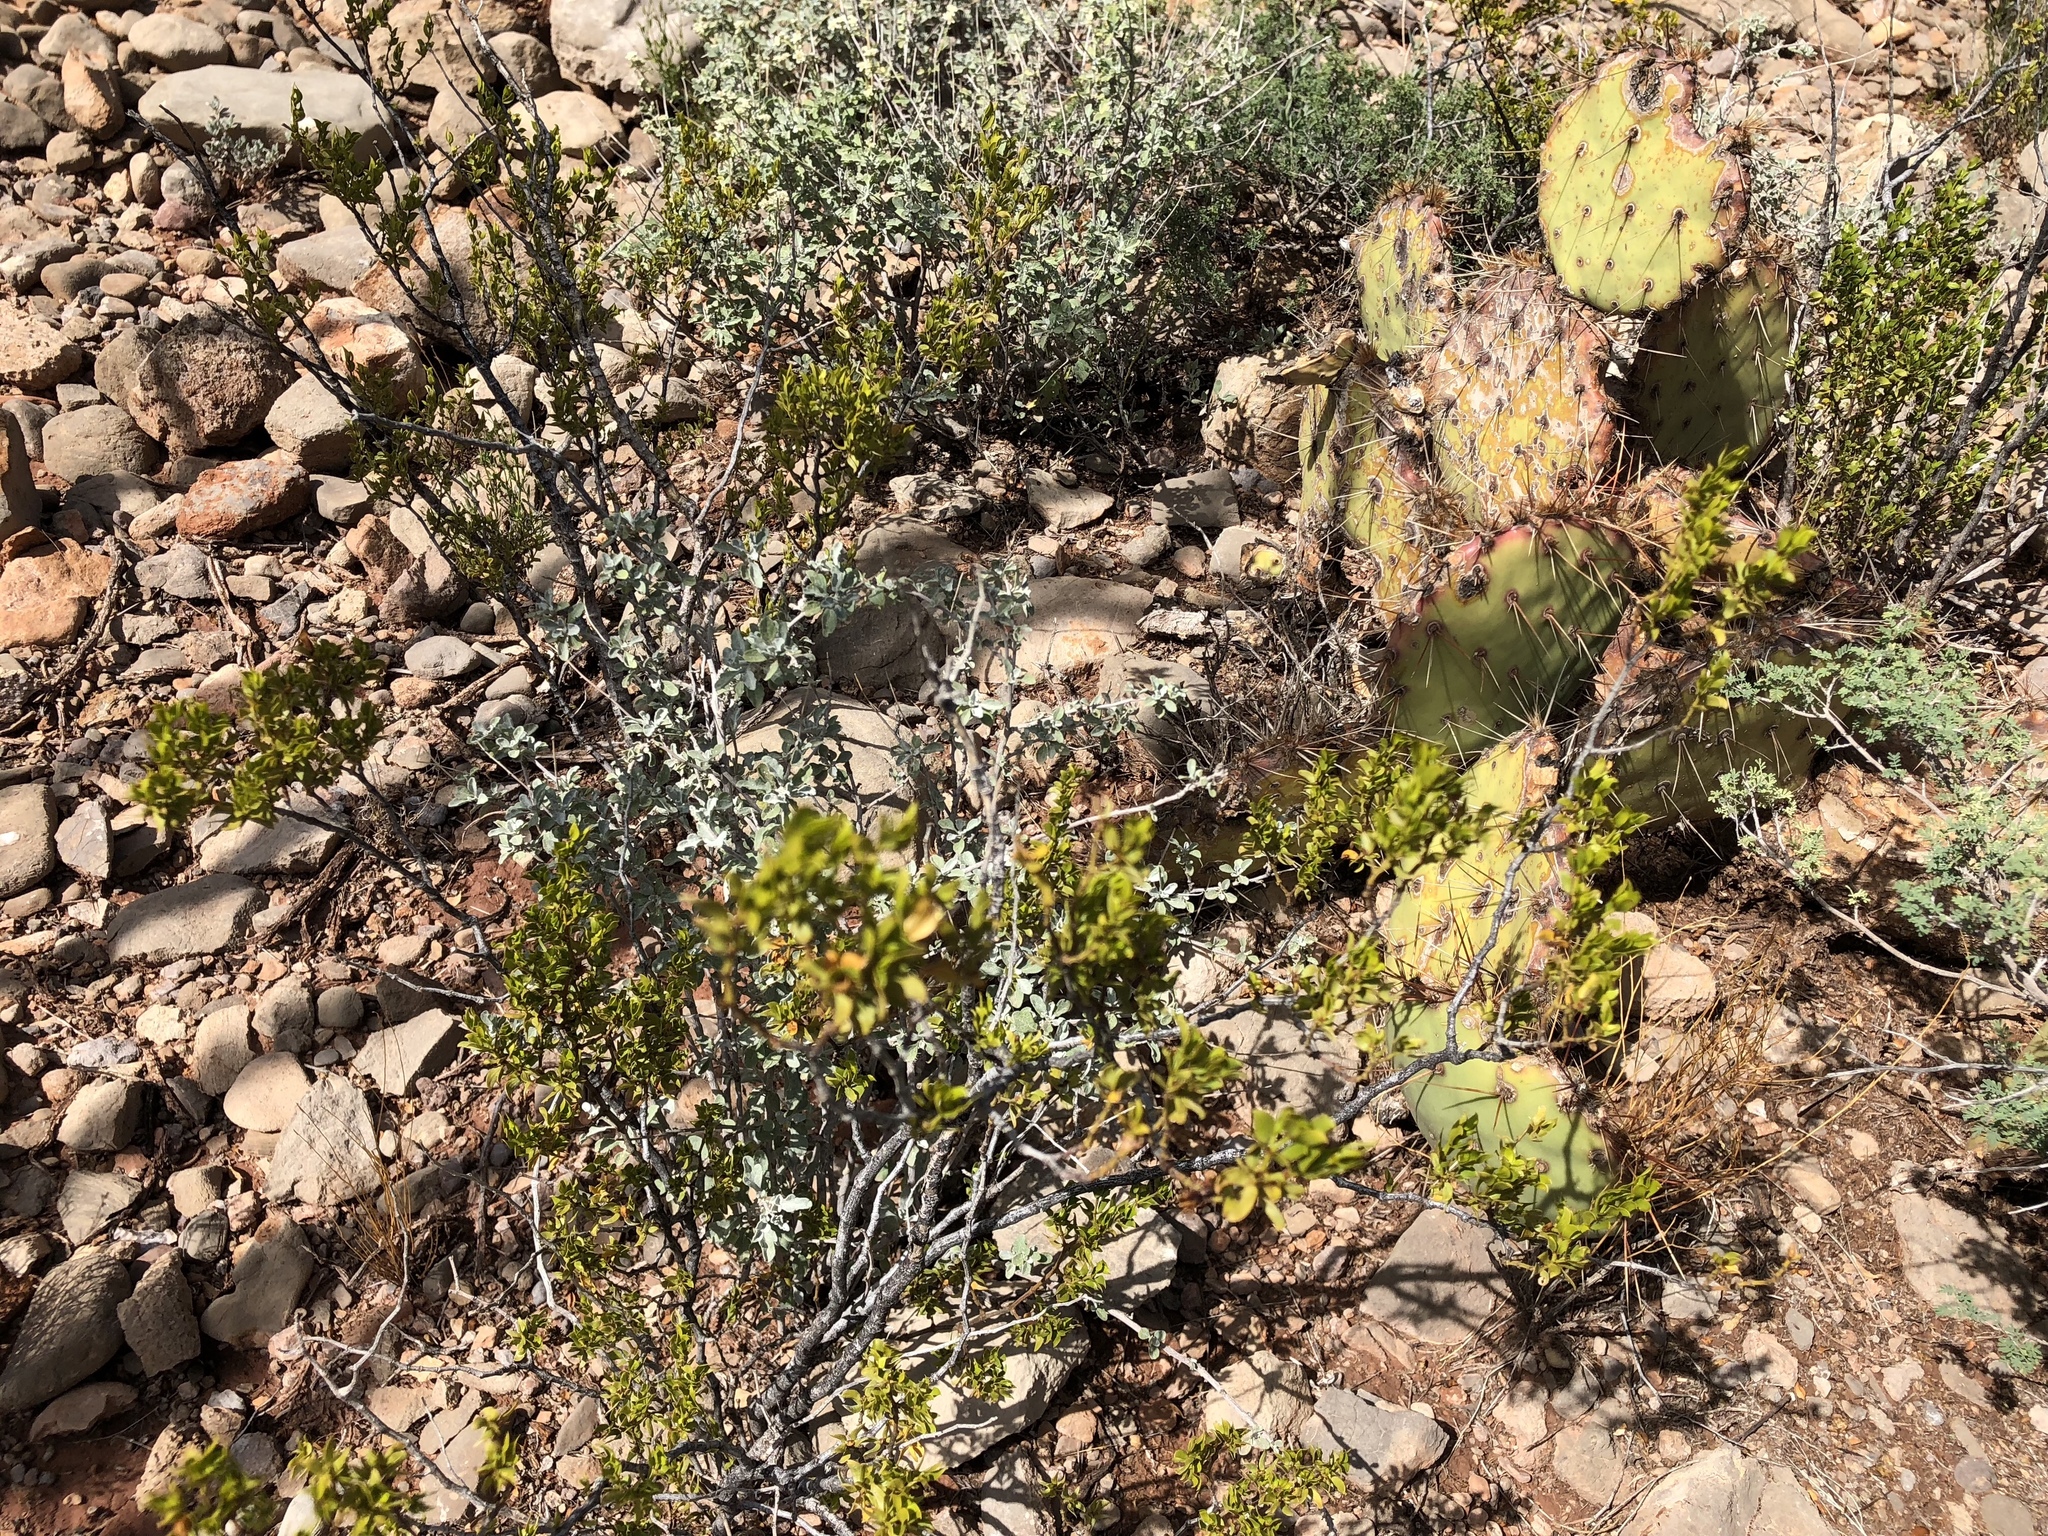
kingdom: Plantae
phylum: Tracheophyta
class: Magnoliopsida
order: Zygophyllales
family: Zygophyllaceae
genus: Larrea
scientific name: Larrea tridentata
